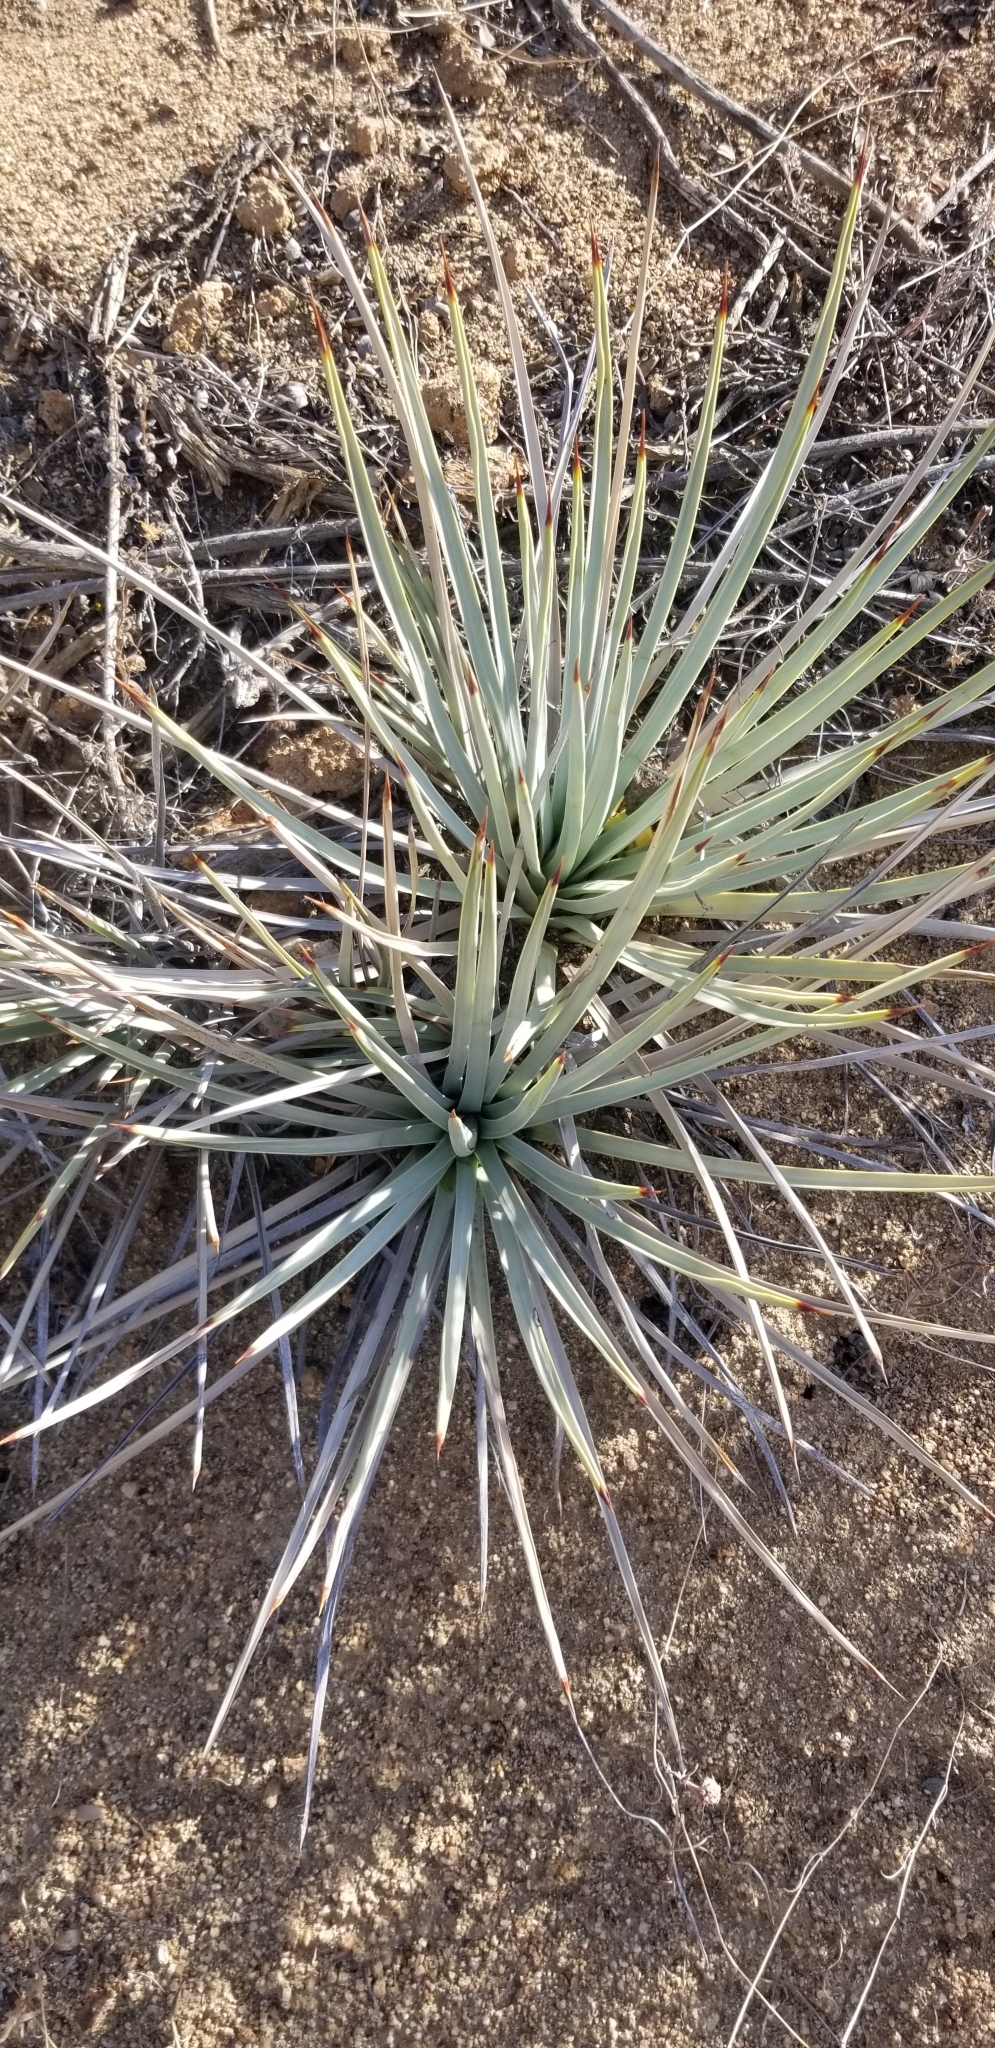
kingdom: Plantae
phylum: Tracheophyta
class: Liliopsida
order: Asparagales
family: Asparagaceae
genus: Hesperoyucca
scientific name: Hesperoyucca whipplei
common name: Our lord's-candle
